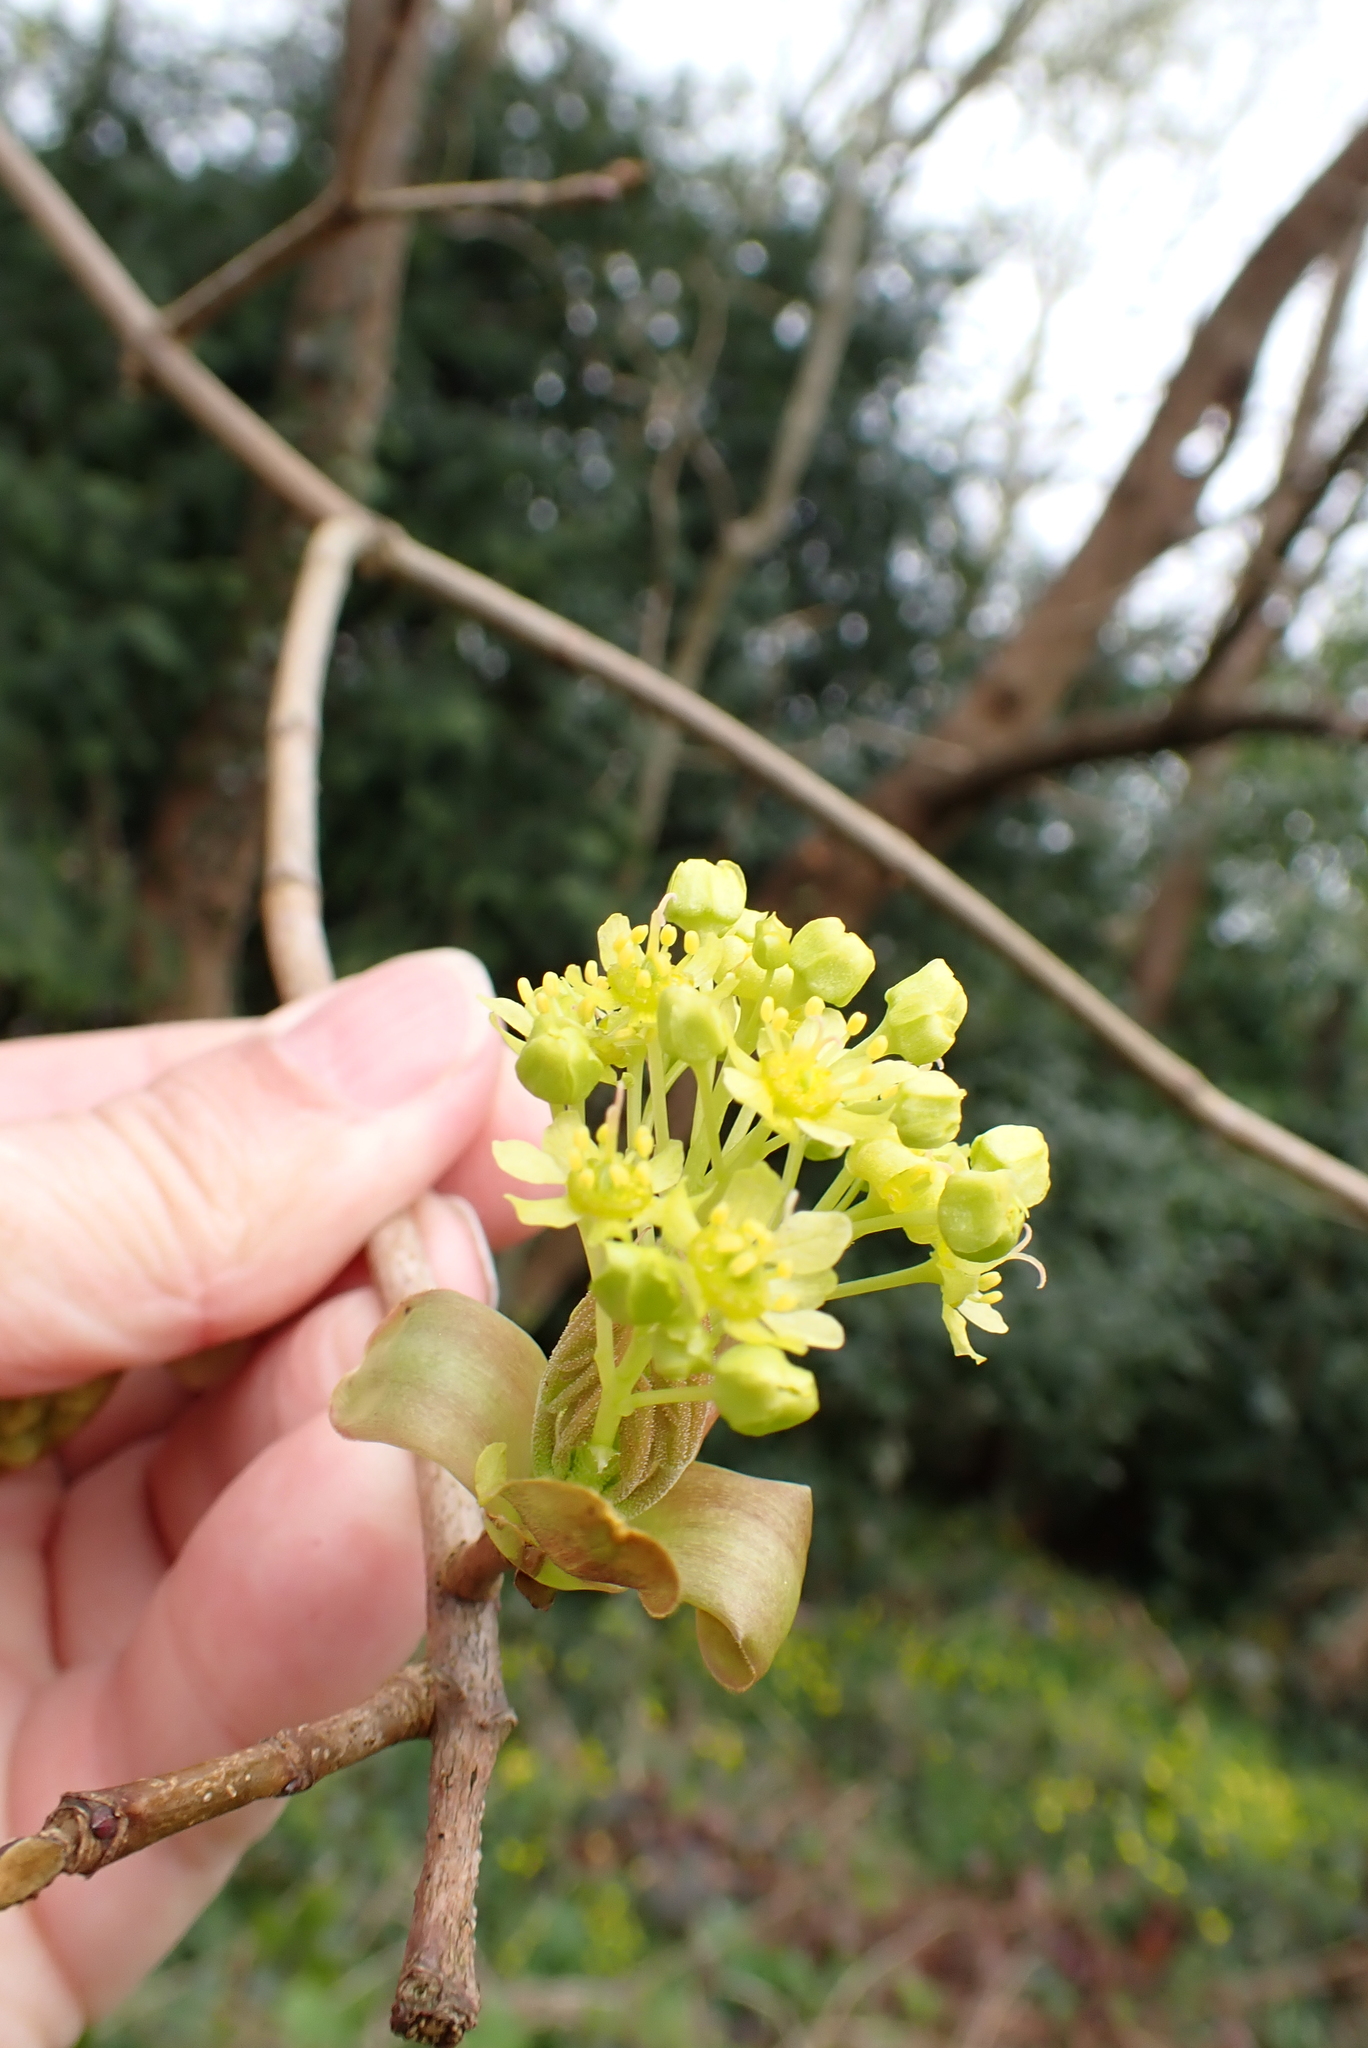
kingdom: Plantae
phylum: Tracheophyta
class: Magnoliopsida
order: Sapindales
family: Sapindaceae
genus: Acer
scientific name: Acer platanoides
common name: Norway maple
